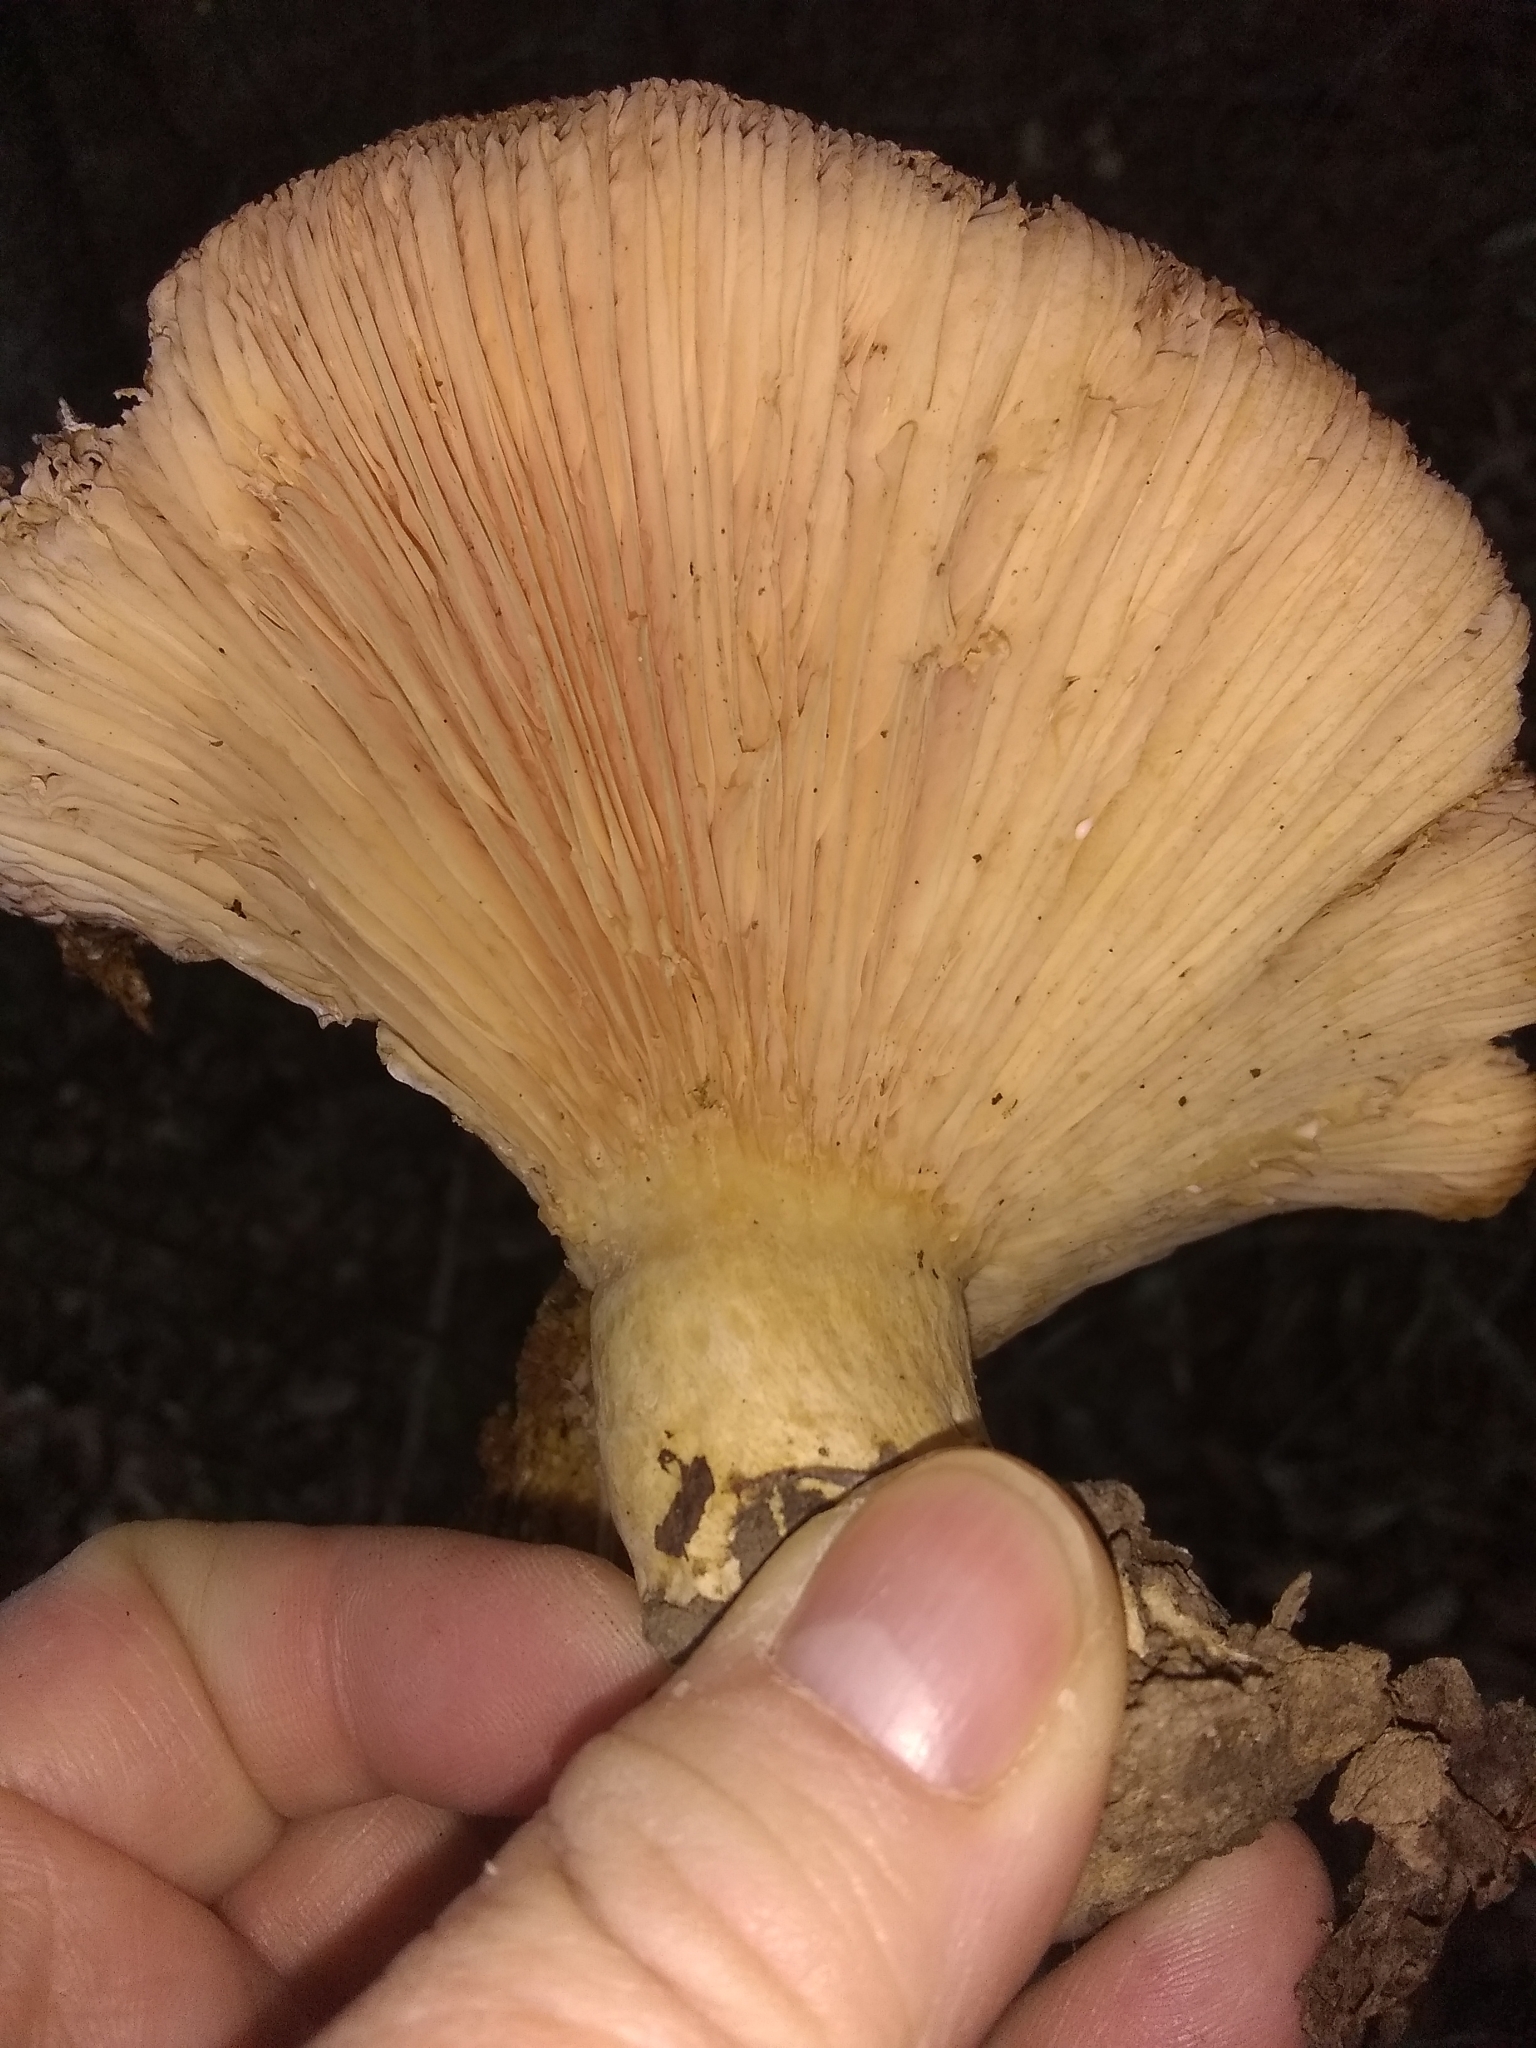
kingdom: Fungi
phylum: Basidiomycota
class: Agaricomycetes
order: Russulales
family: Russulaceae
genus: Lactarius
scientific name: Lactarius alnicola
